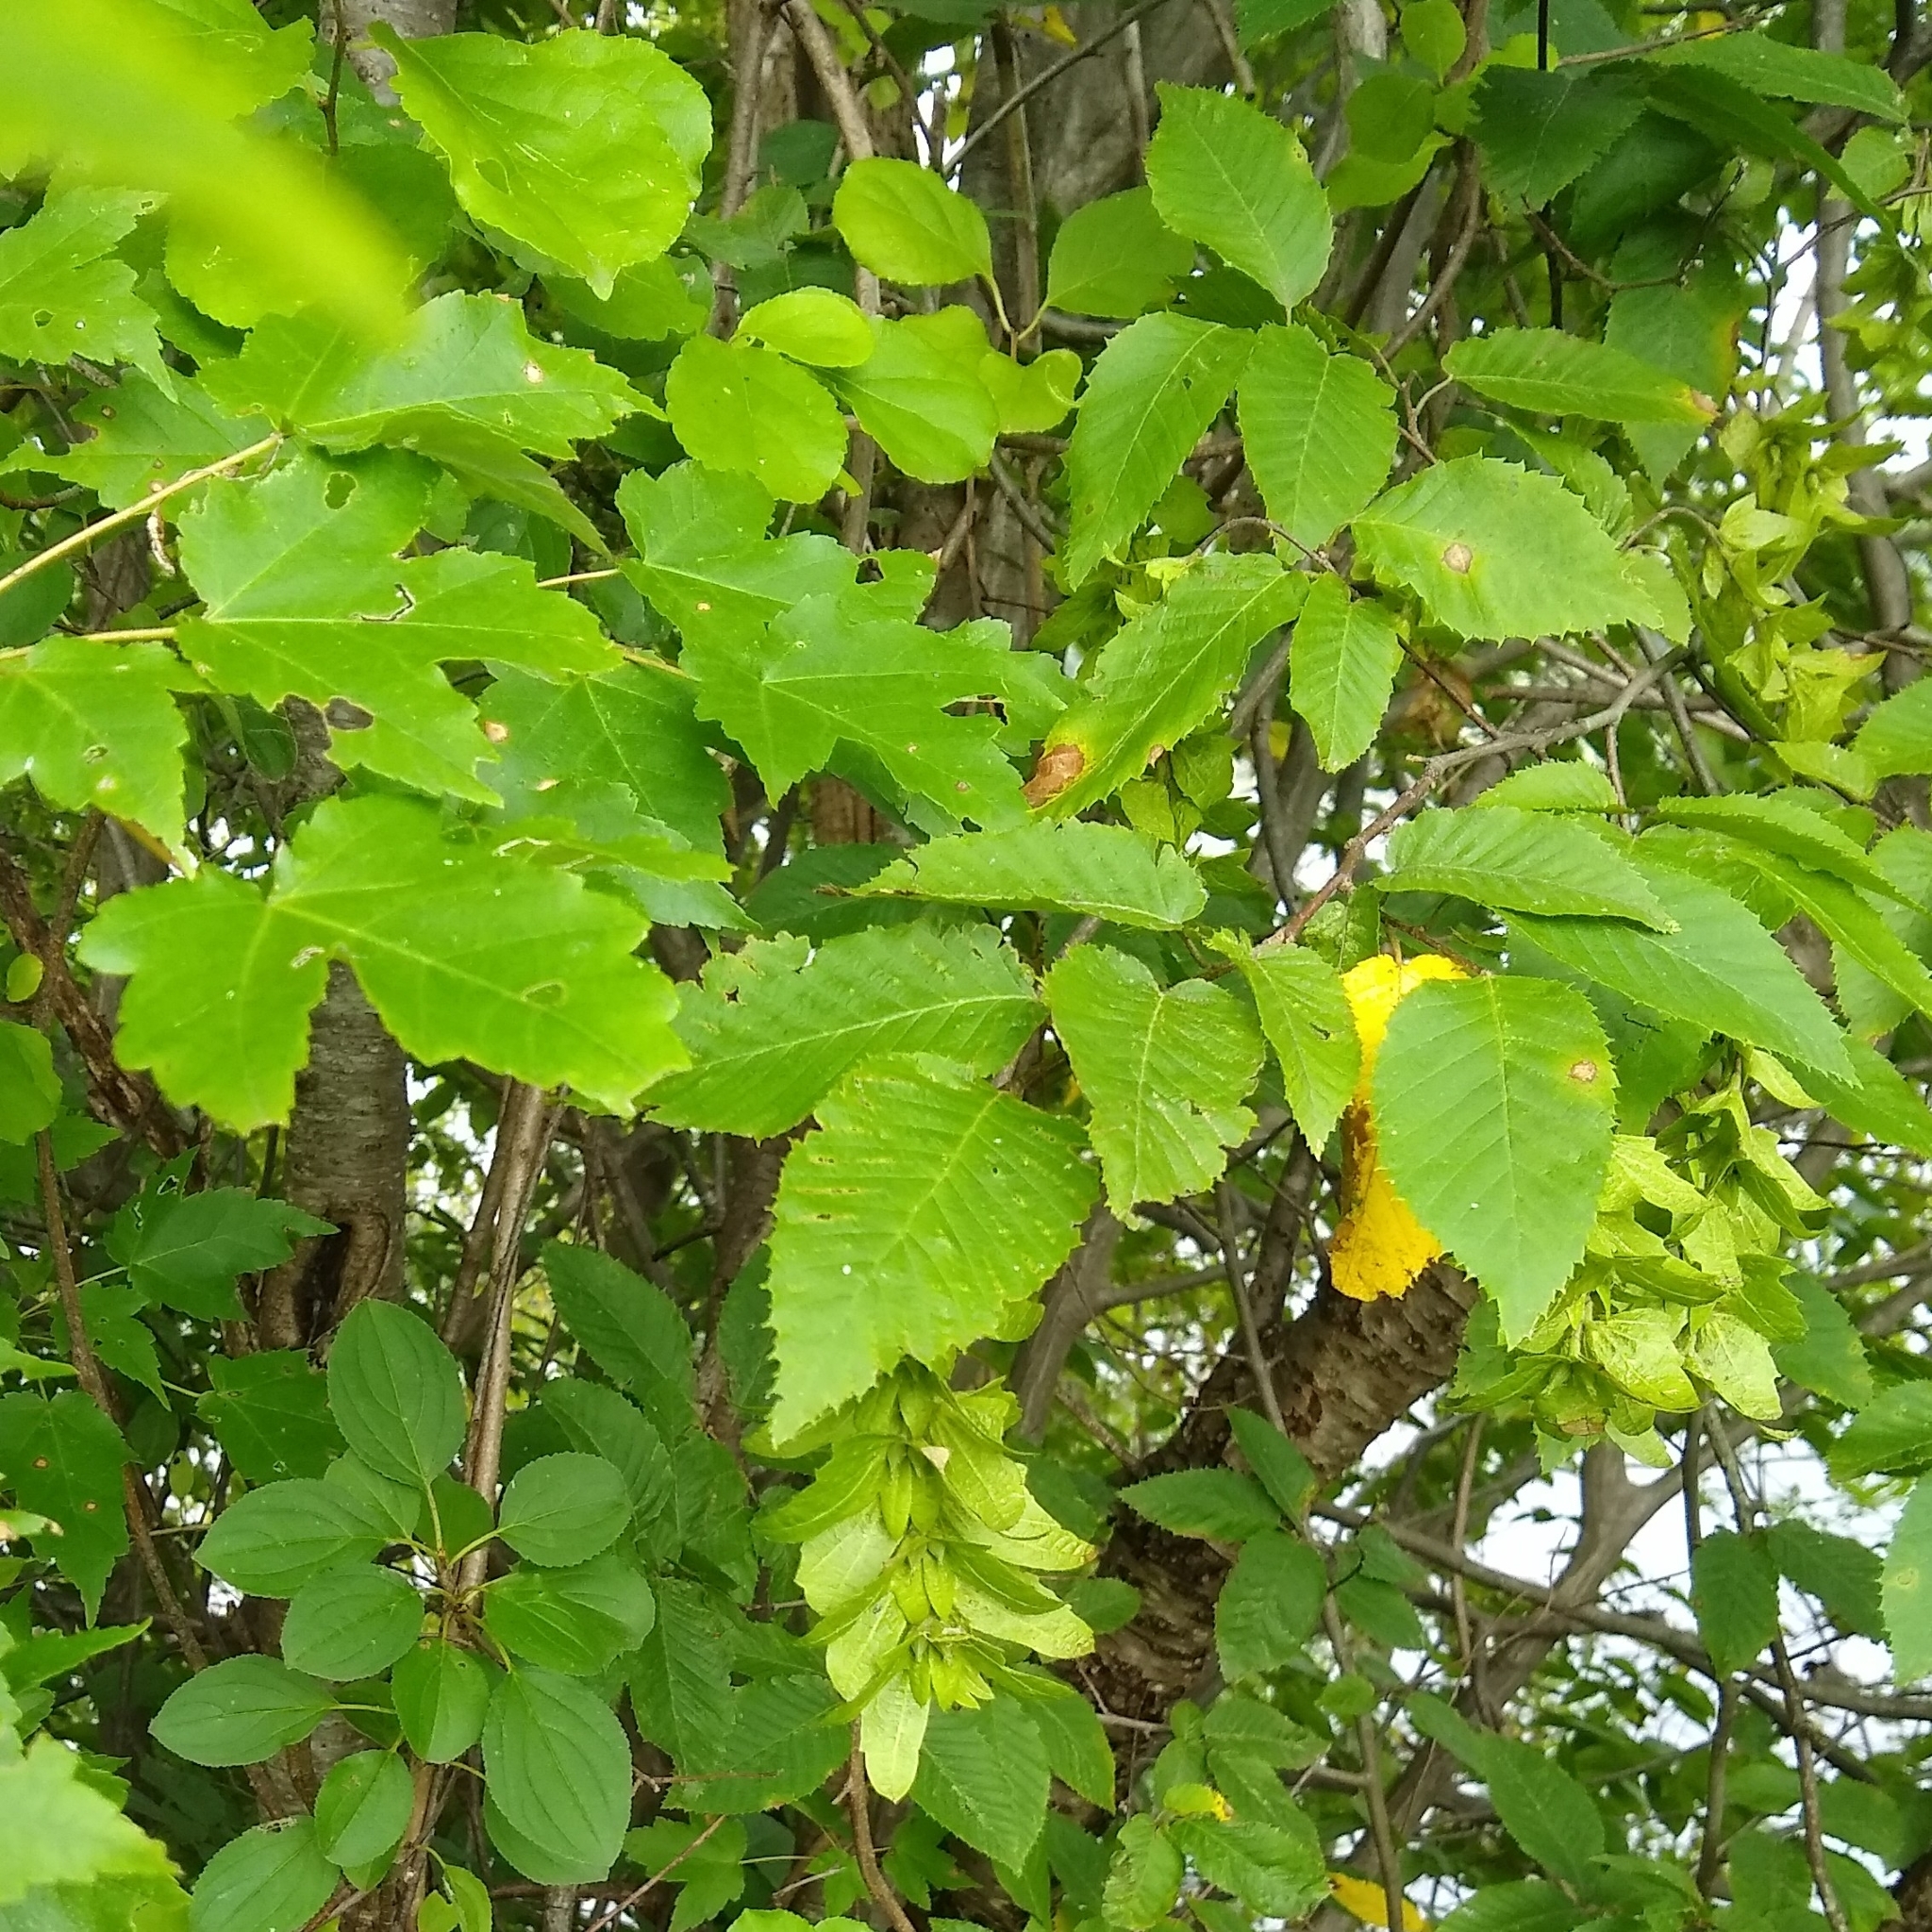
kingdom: Plantae
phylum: Tracheophyta
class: Magnoliopsida
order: Fagales
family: Betulaceae
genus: Carpinus
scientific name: Carpinus caroliniana
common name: American hornbeam
